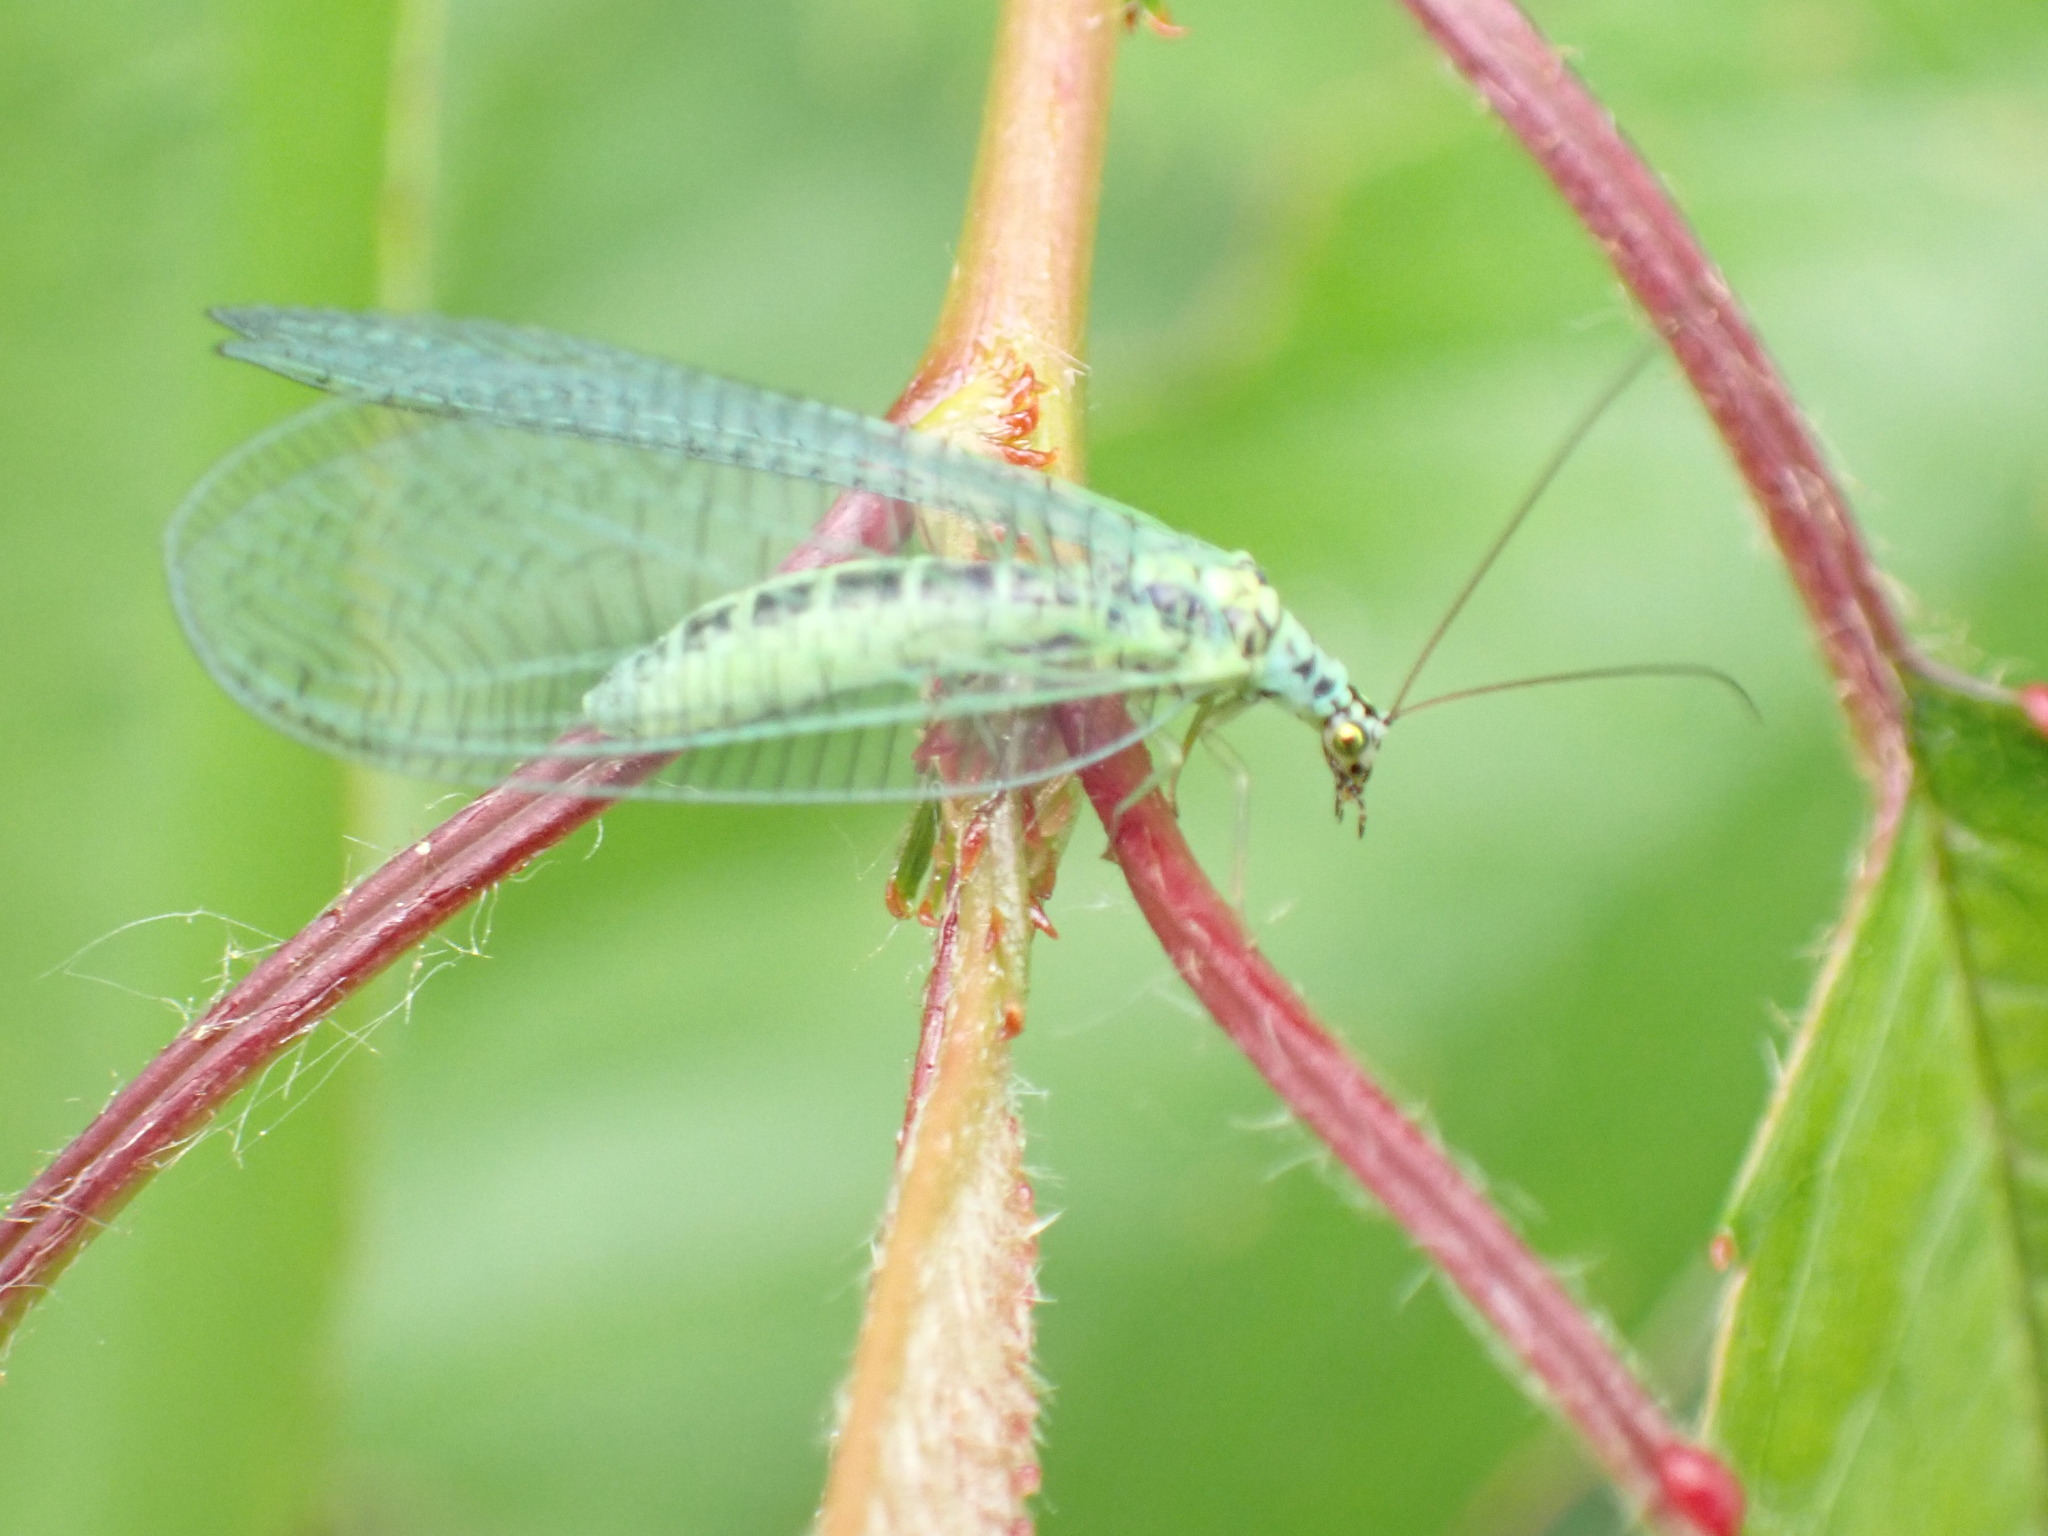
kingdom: Animalia
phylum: Arthropoda
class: Insecta
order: Neuroptera
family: Chrysopidae
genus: Chrysopa
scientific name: Chrysopa perla
